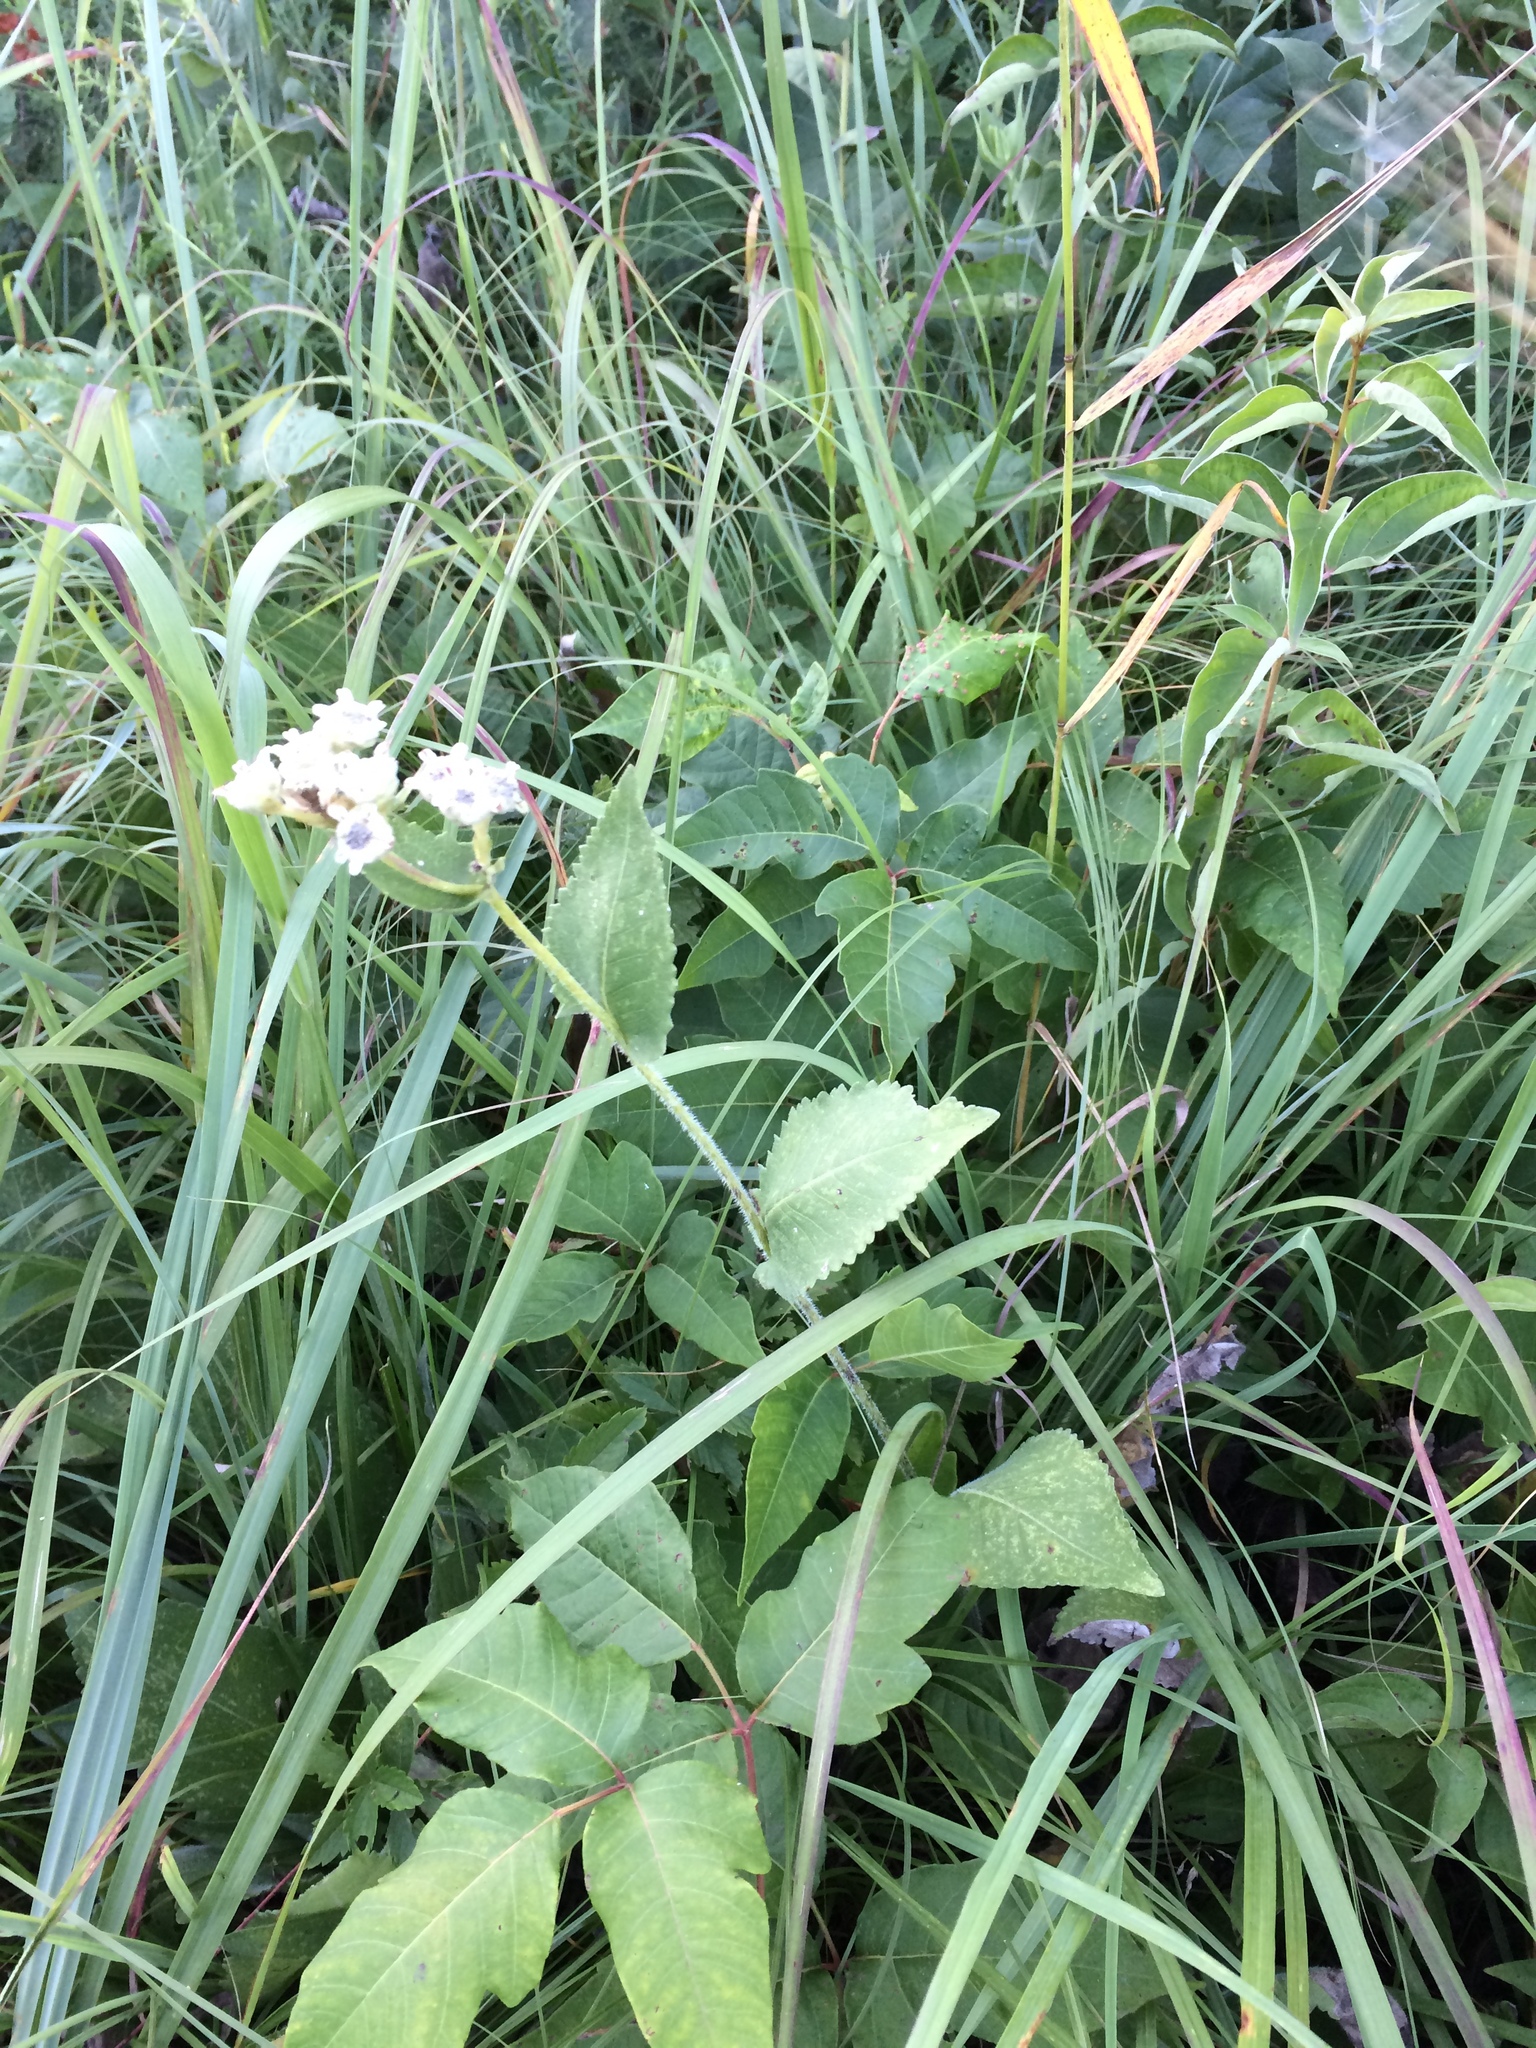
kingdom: Plantae
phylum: Tracheophyta
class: Magnoliopsida
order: Asterales
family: Asteraceae
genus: Parthenium
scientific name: Parthenium hispidum
